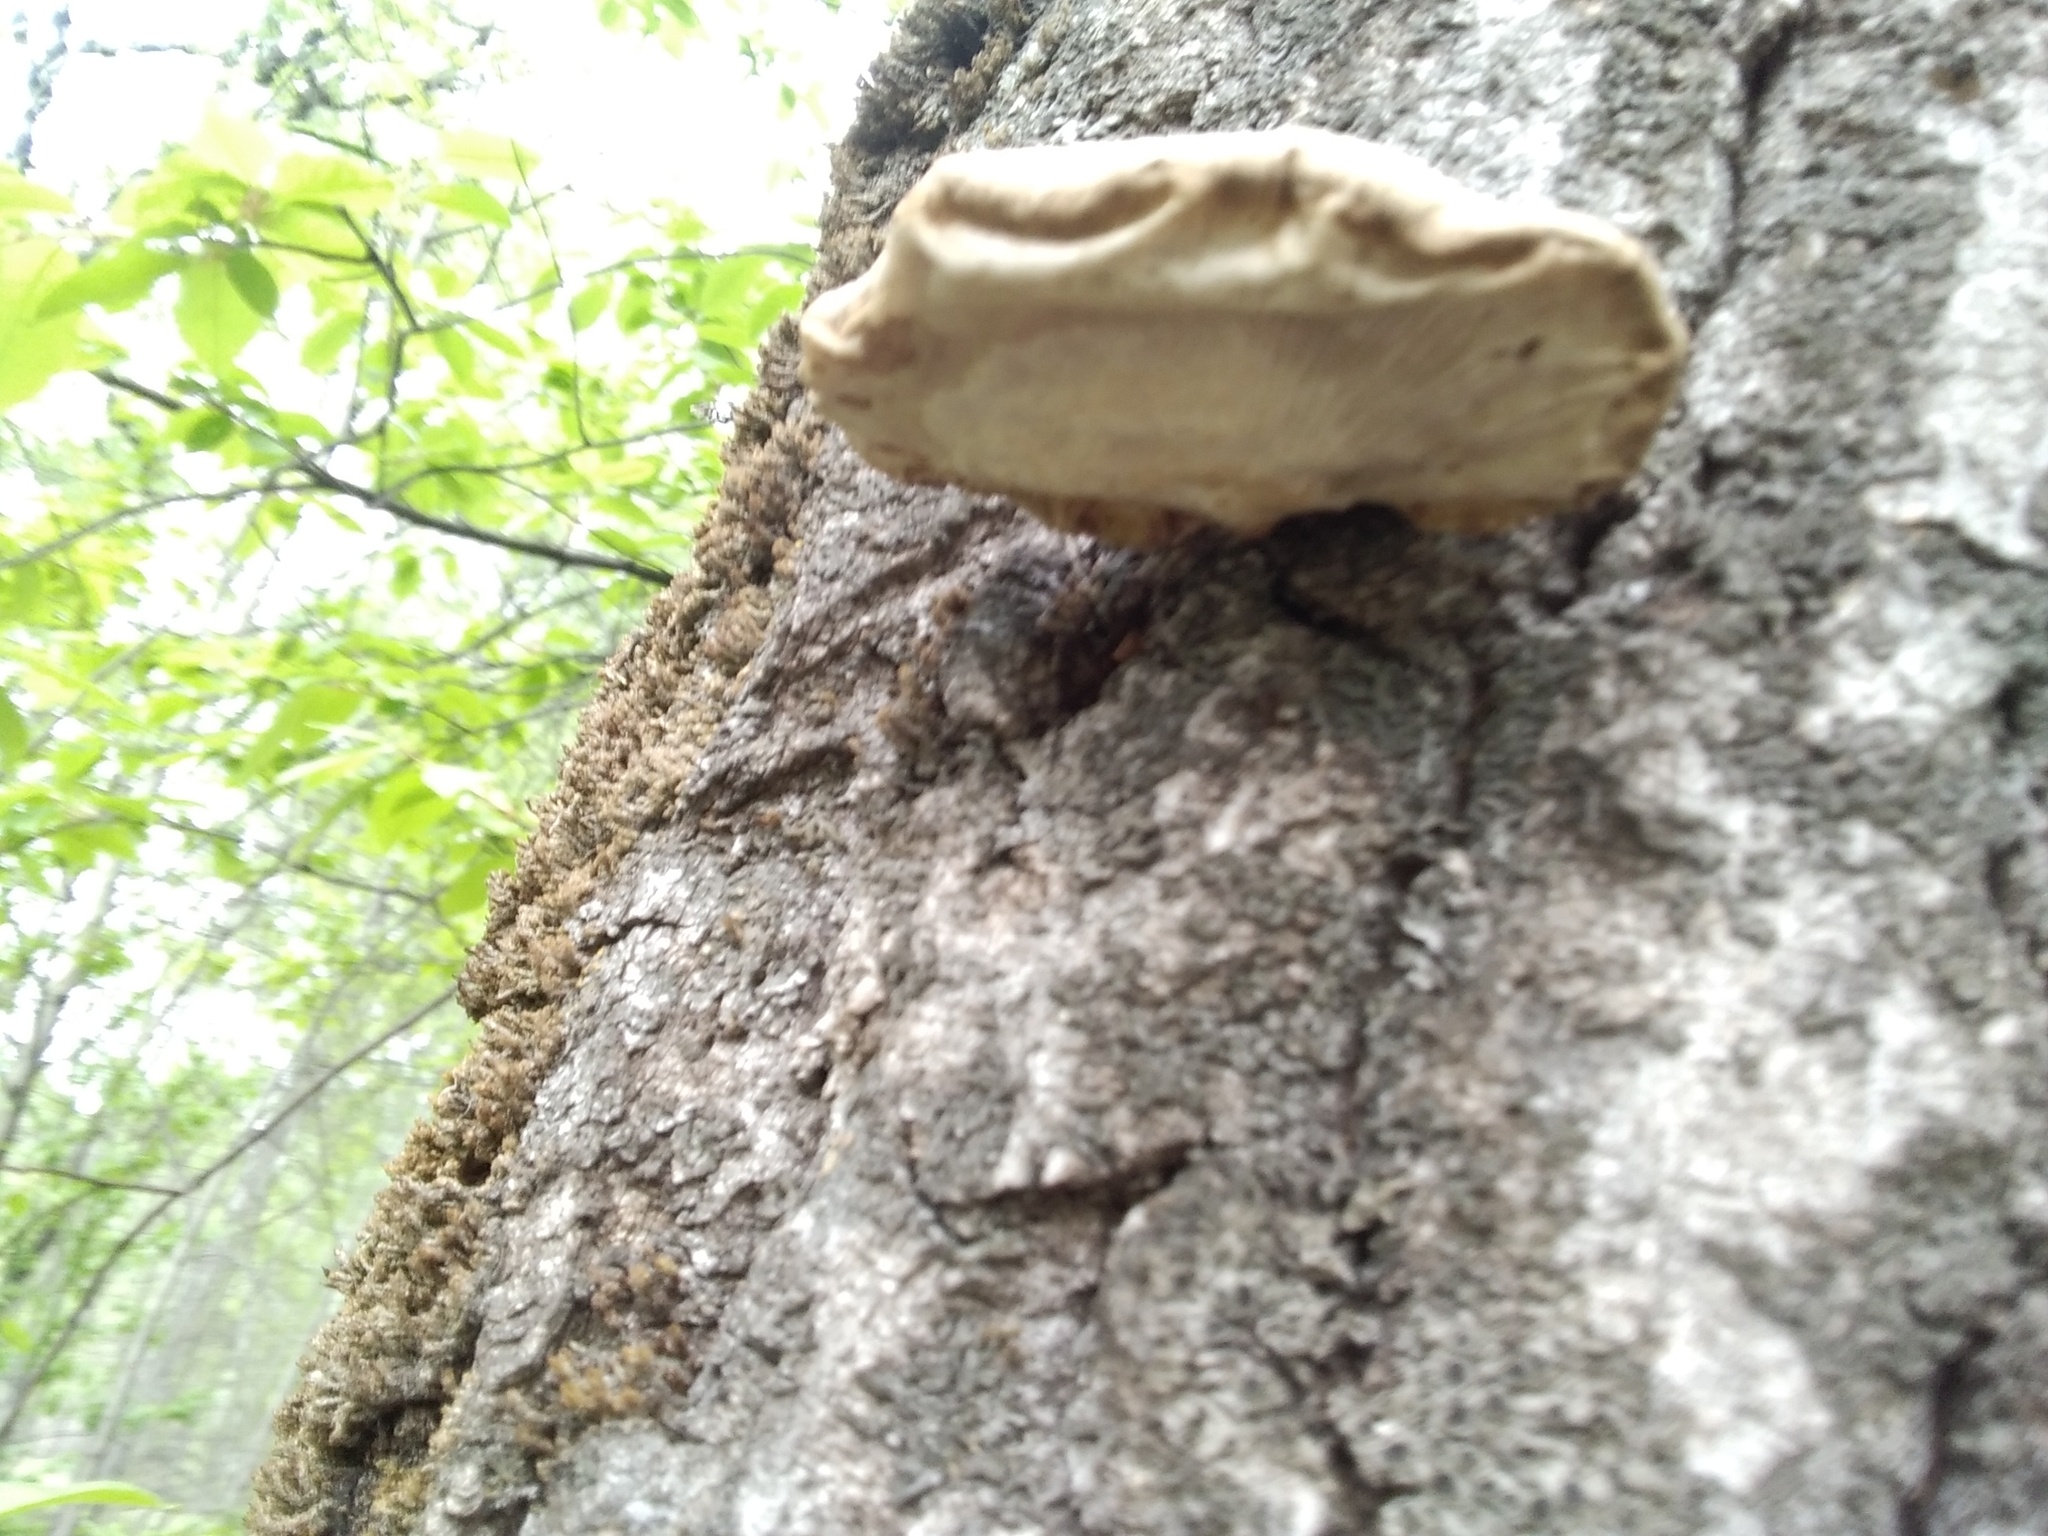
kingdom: Fungi
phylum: Basidiomycota
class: Agaricomycetes
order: Agaricales
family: Pleurotaceae
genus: Pleurotus
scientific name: Pleurotus calyptratus
